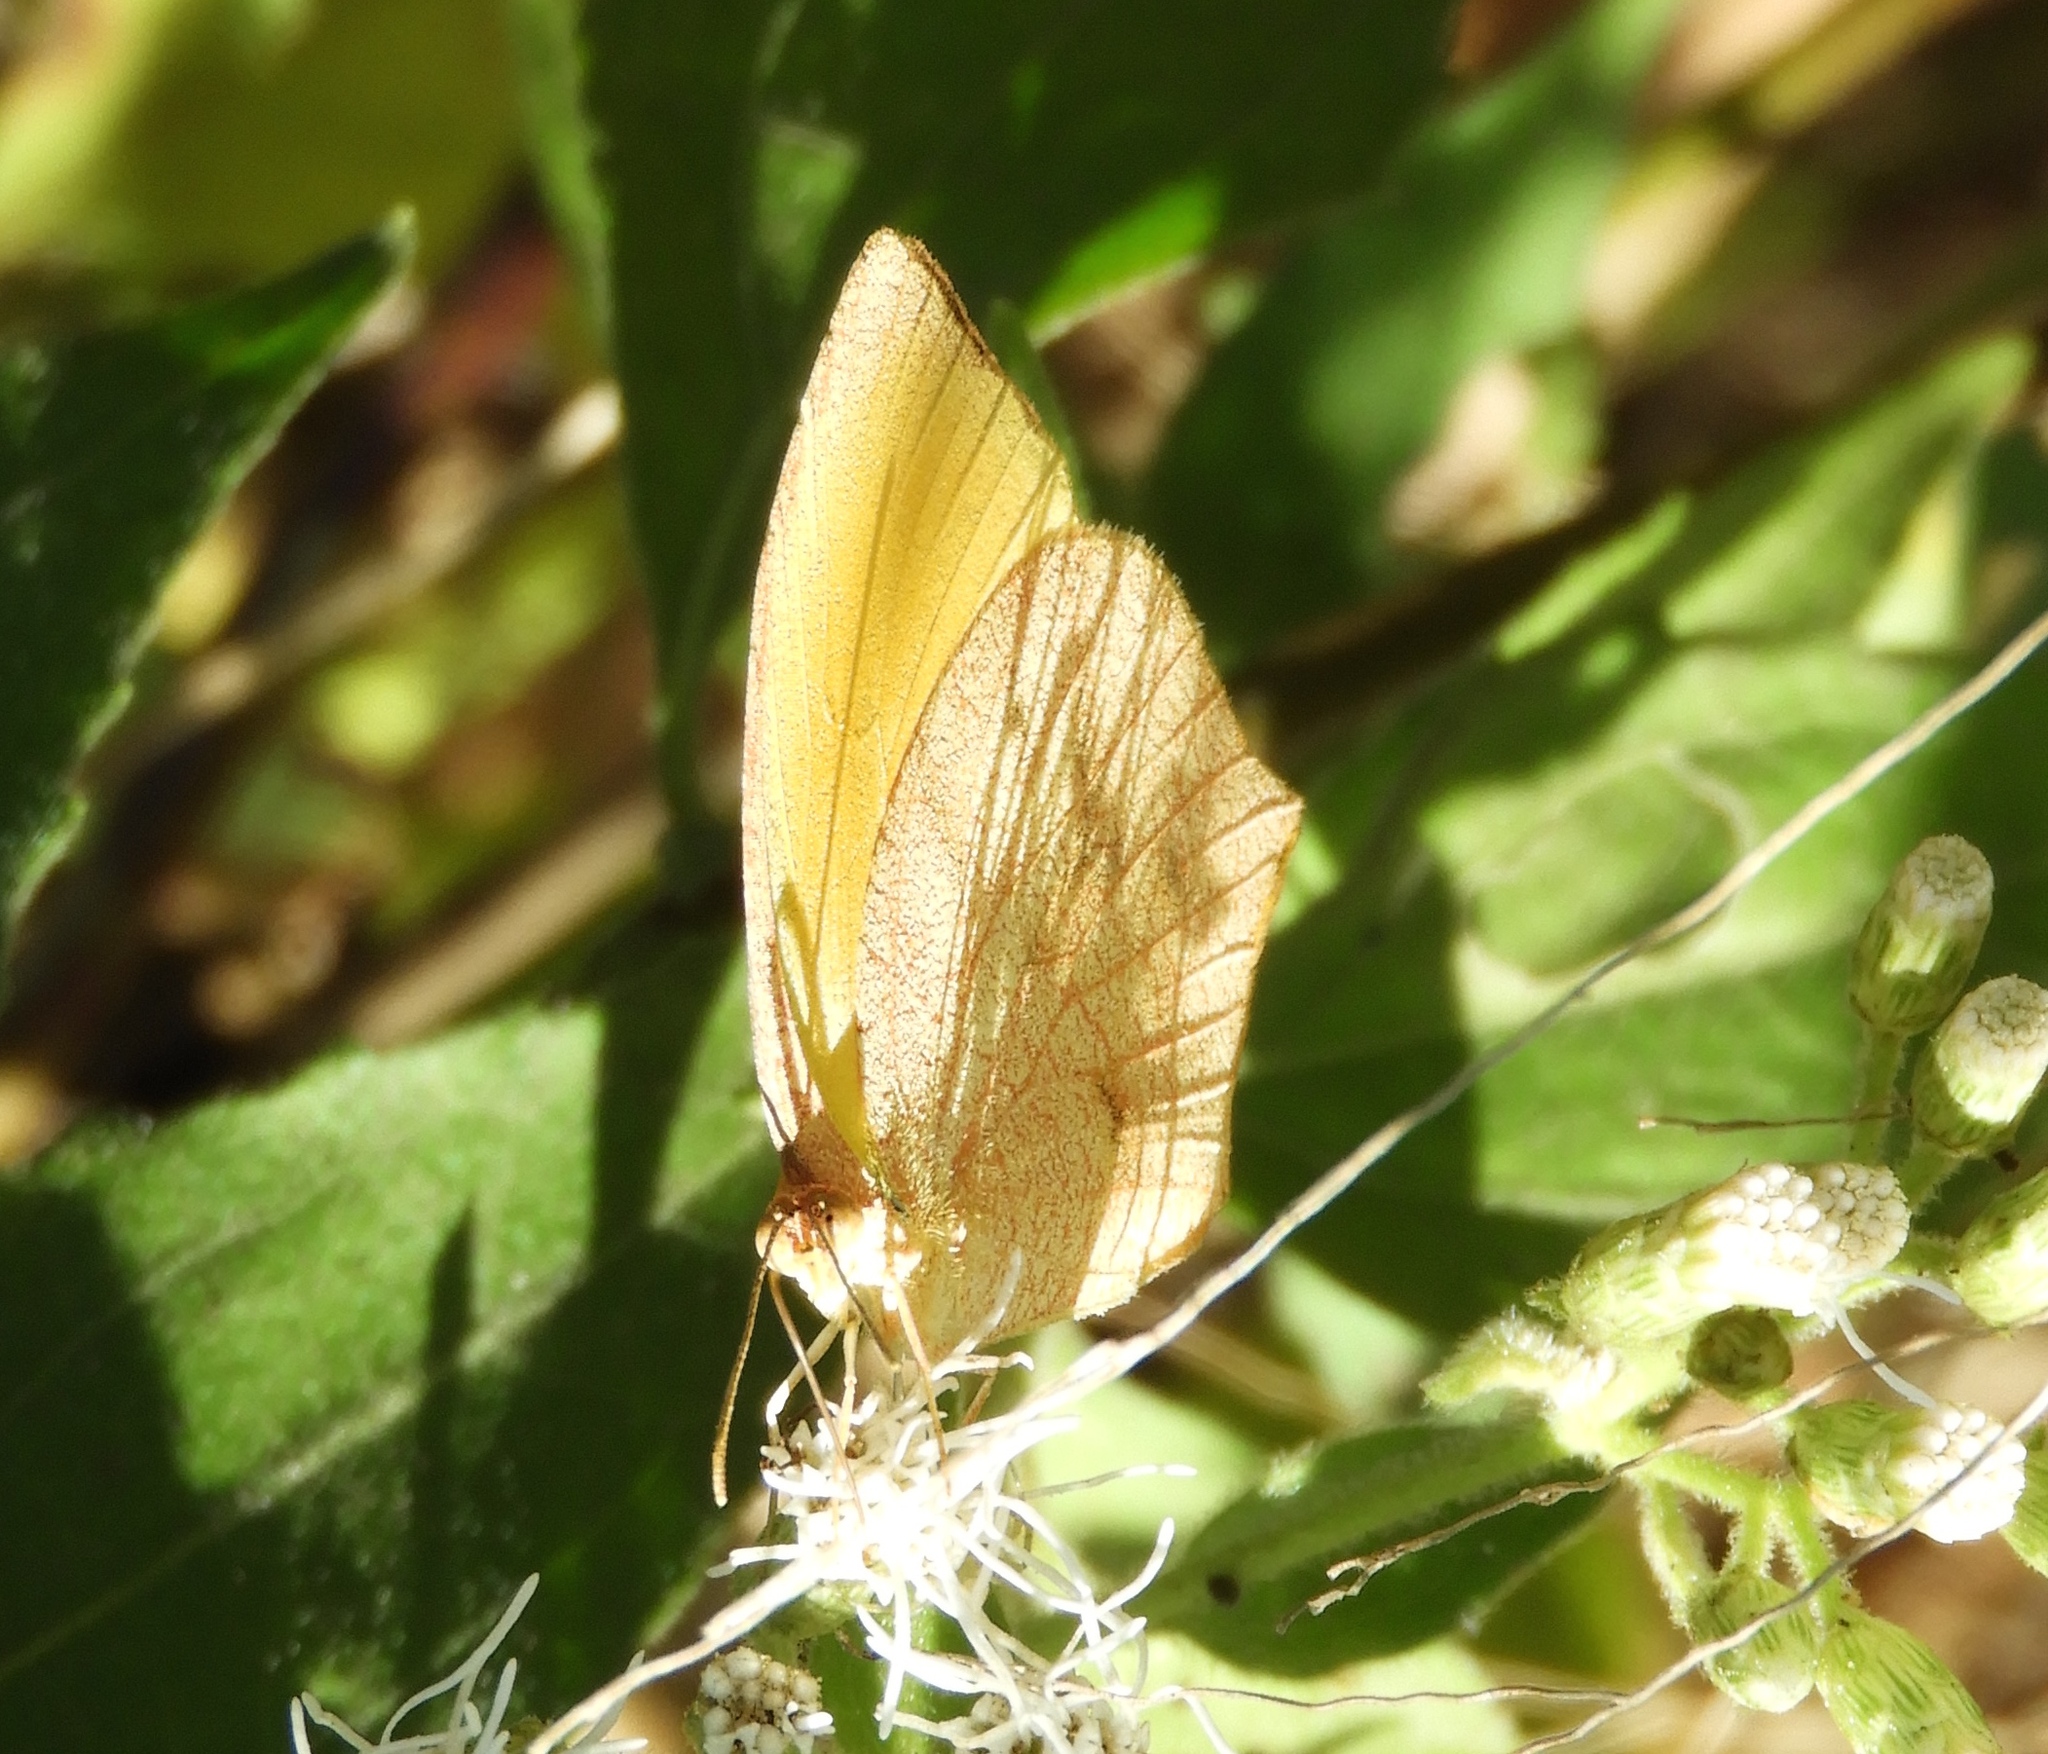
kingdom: Animalia
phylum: Arthropoda
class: Insecta
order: Lepidoptera
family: Pieridae
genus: Pyrisitia
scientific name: Pyrisitia proterpia
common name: Tailed orange
